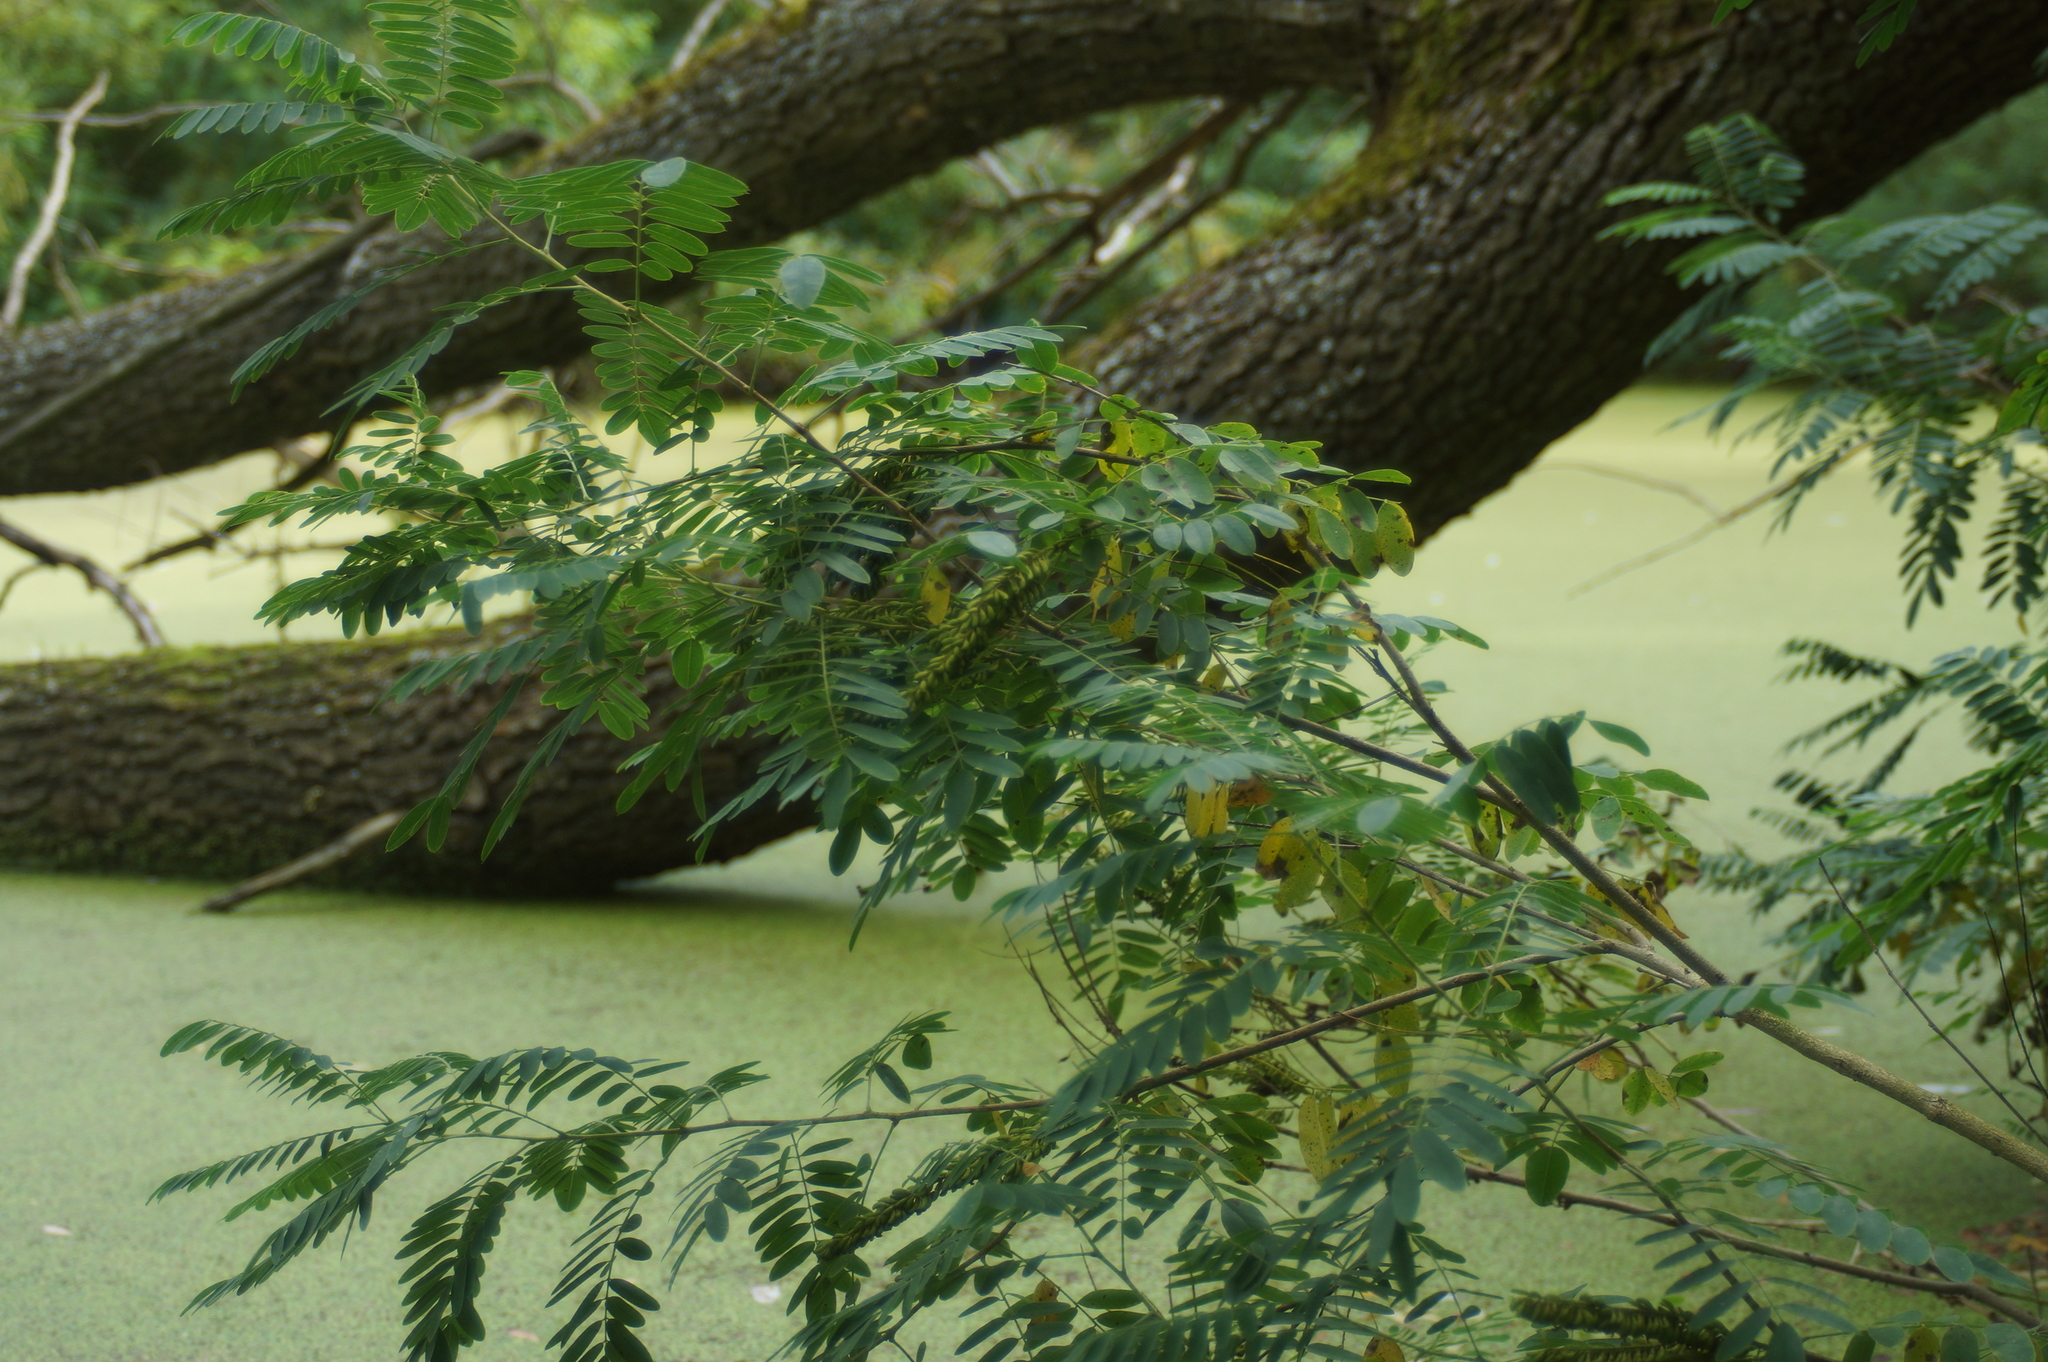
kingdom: Plantae
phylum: Tracheophyta
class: Magnoliopsida
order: Fabales
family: Fabaceae
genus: Amorpha
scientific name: Amorpha fruticosa
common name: False indigo
